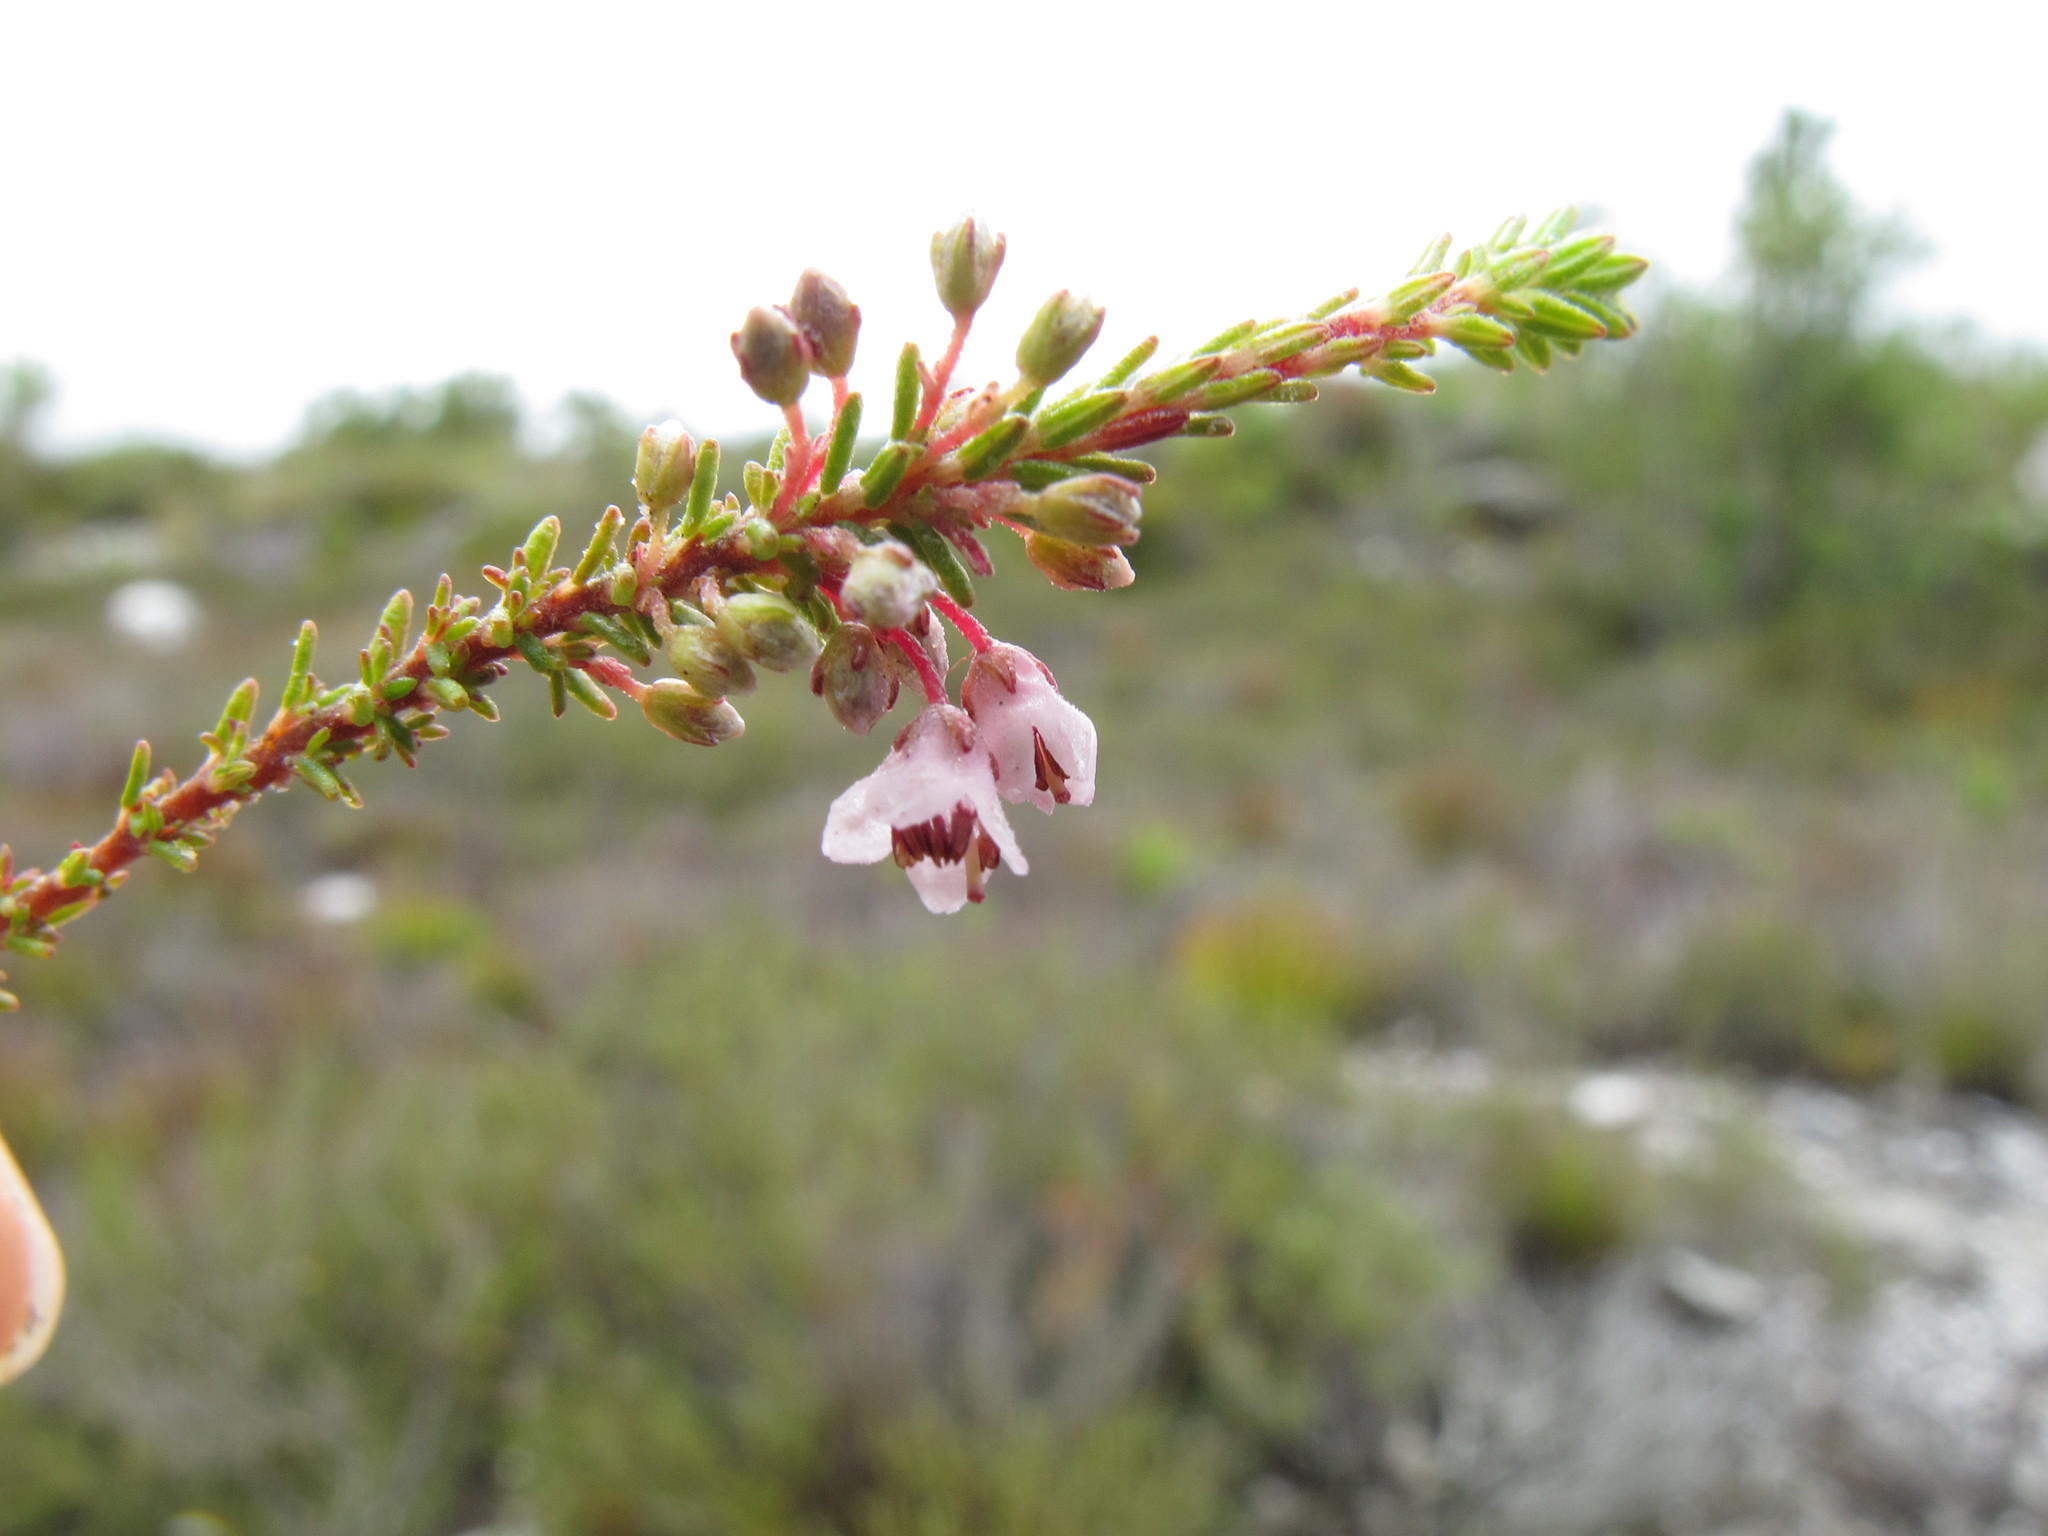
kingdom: Plantae
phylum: Tracheophyta
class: Magnoliopsida
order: Ericales
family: Ericaceae
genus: Erica
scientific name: Erica deflexa
